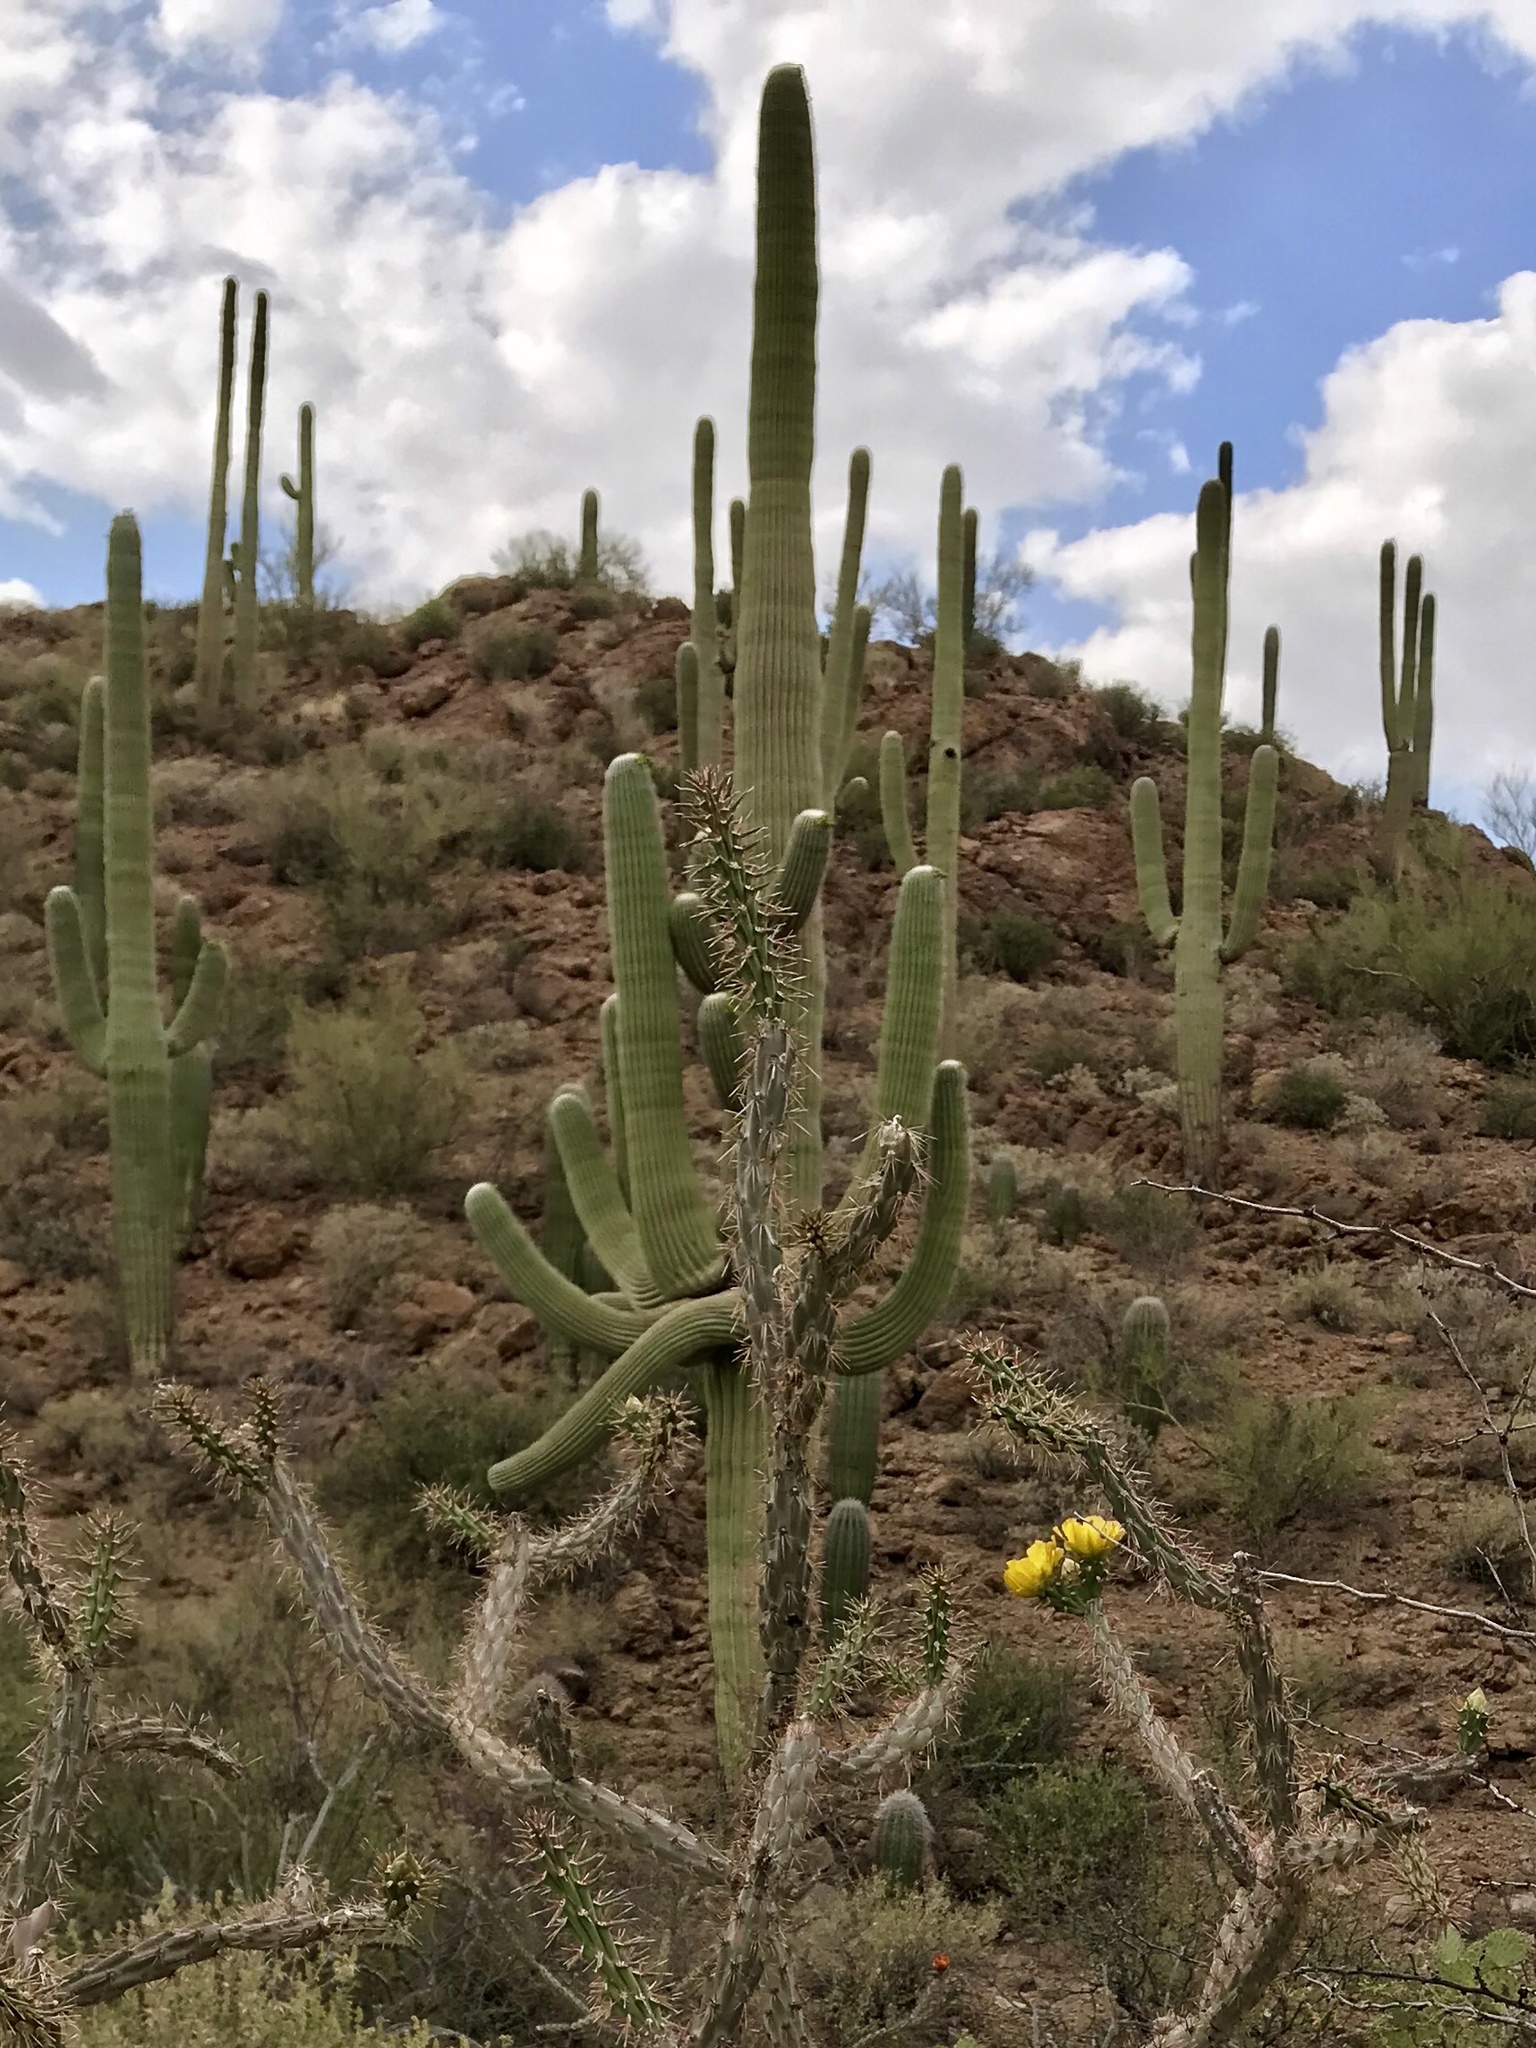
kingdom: Plantae
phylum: Tracheophyta
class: Magnoliopsida
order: Caryophyllales
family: Cactaceae
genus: Carnegiea
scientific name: Carnegiea gigantea
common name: Saguaro
